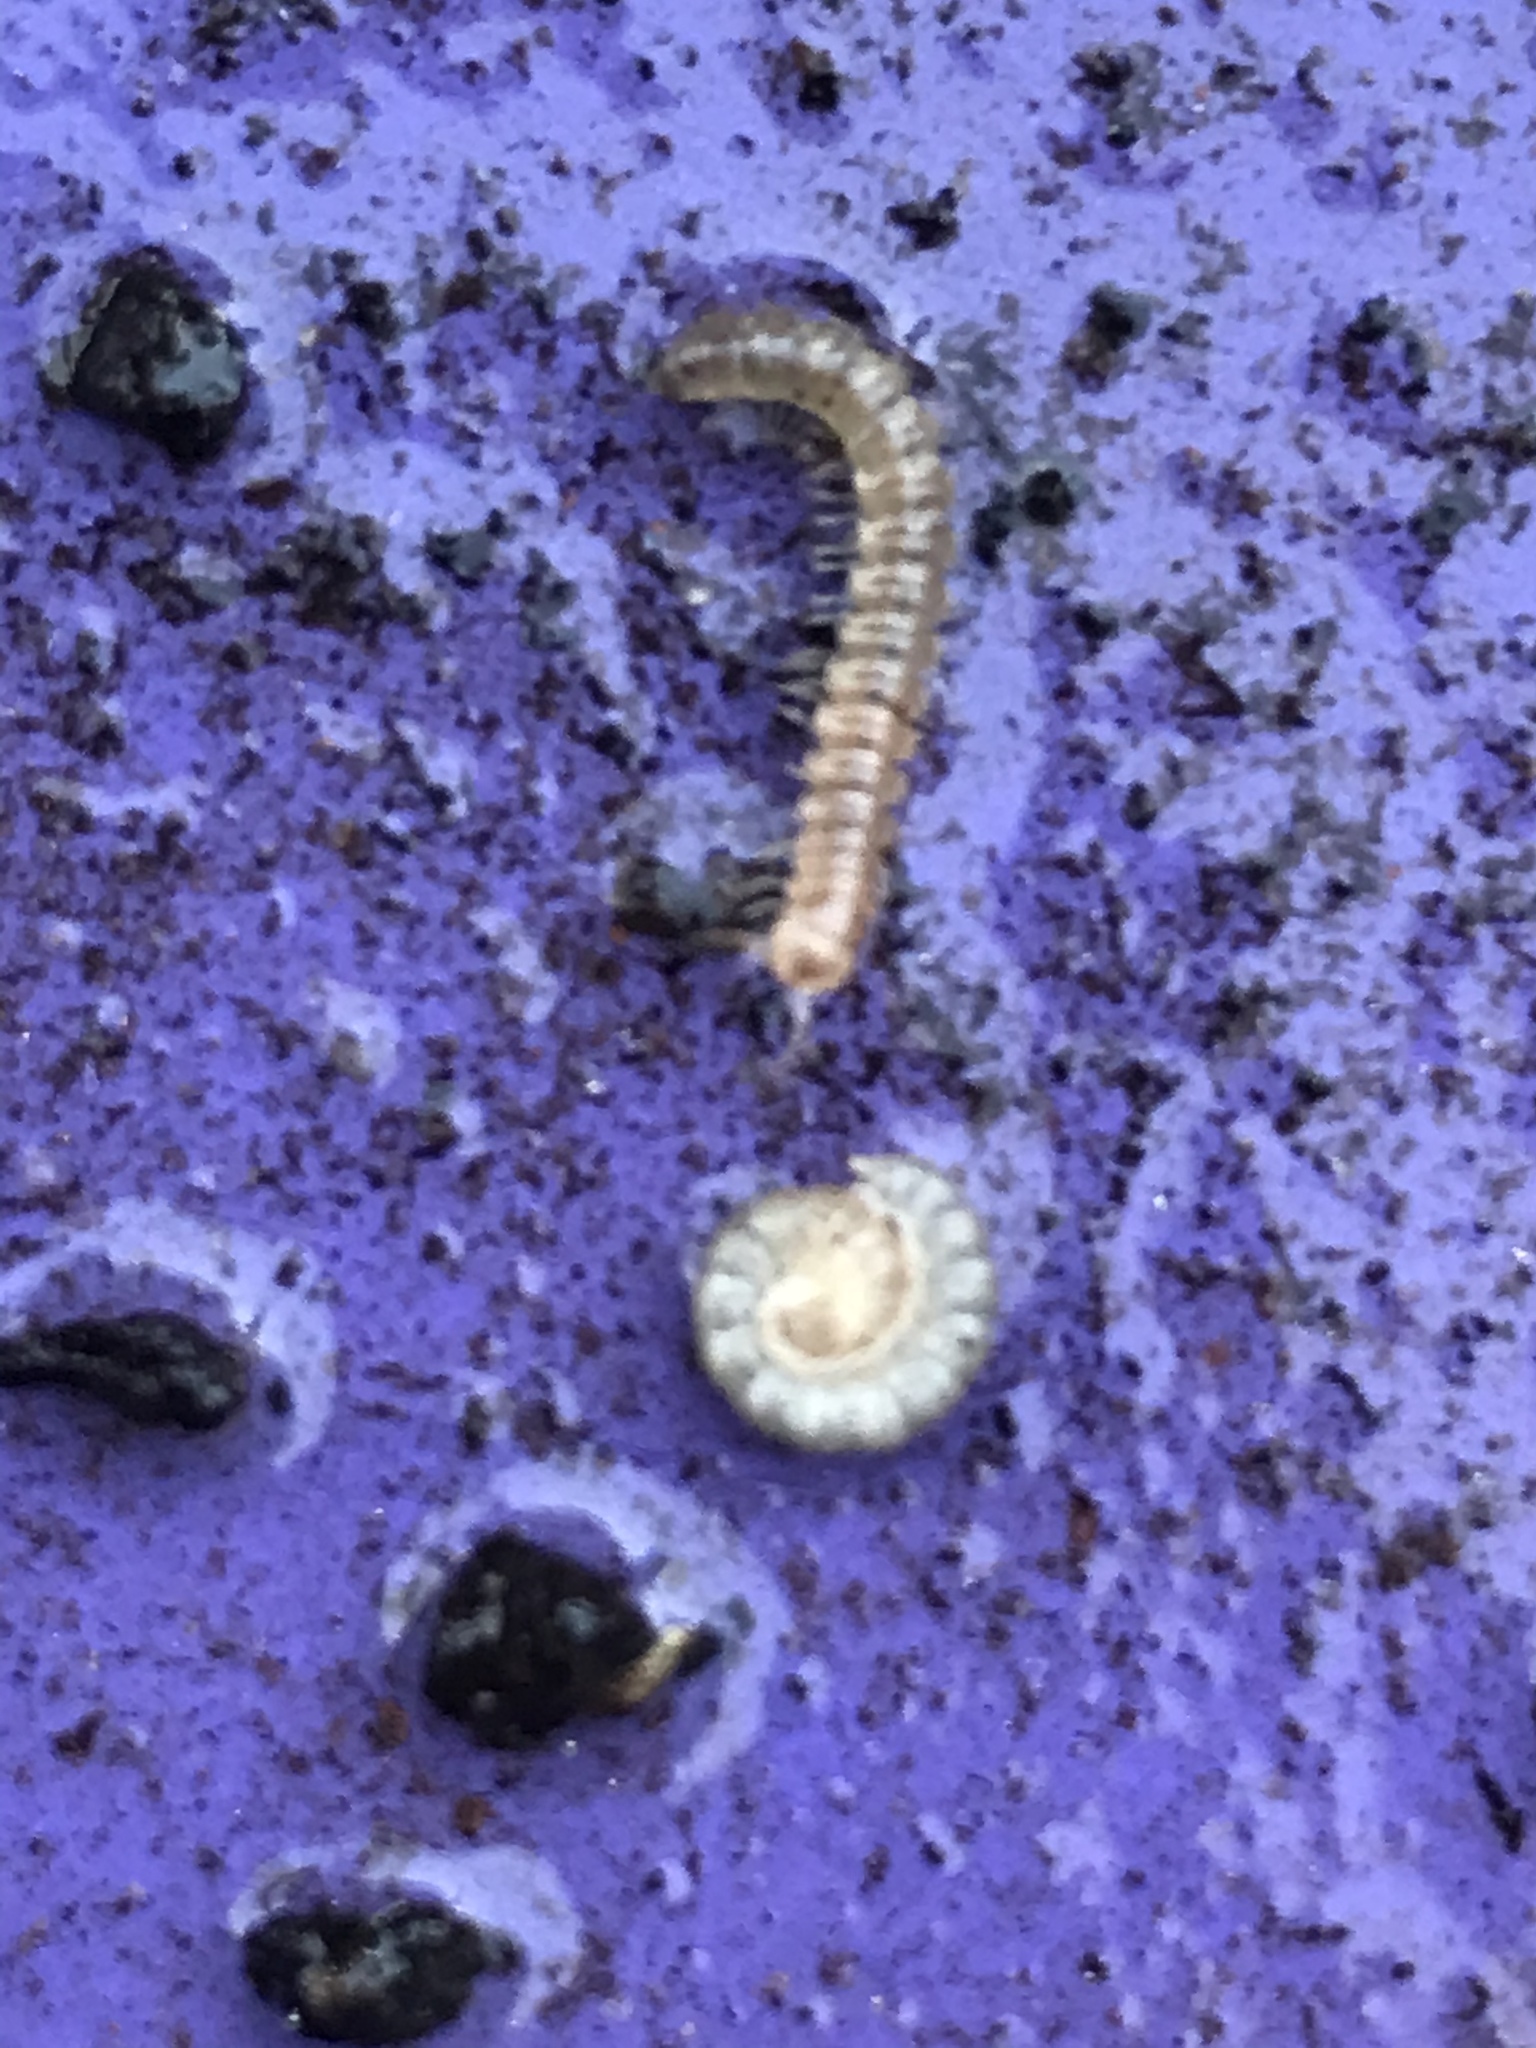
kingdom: Animalia
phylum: Arthropoda
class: Diplopoda
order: Polydesmida
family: Paradoxosomatidae
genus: Oxidus
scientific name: Oxidus gracilis
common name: Greenhouse millipede
